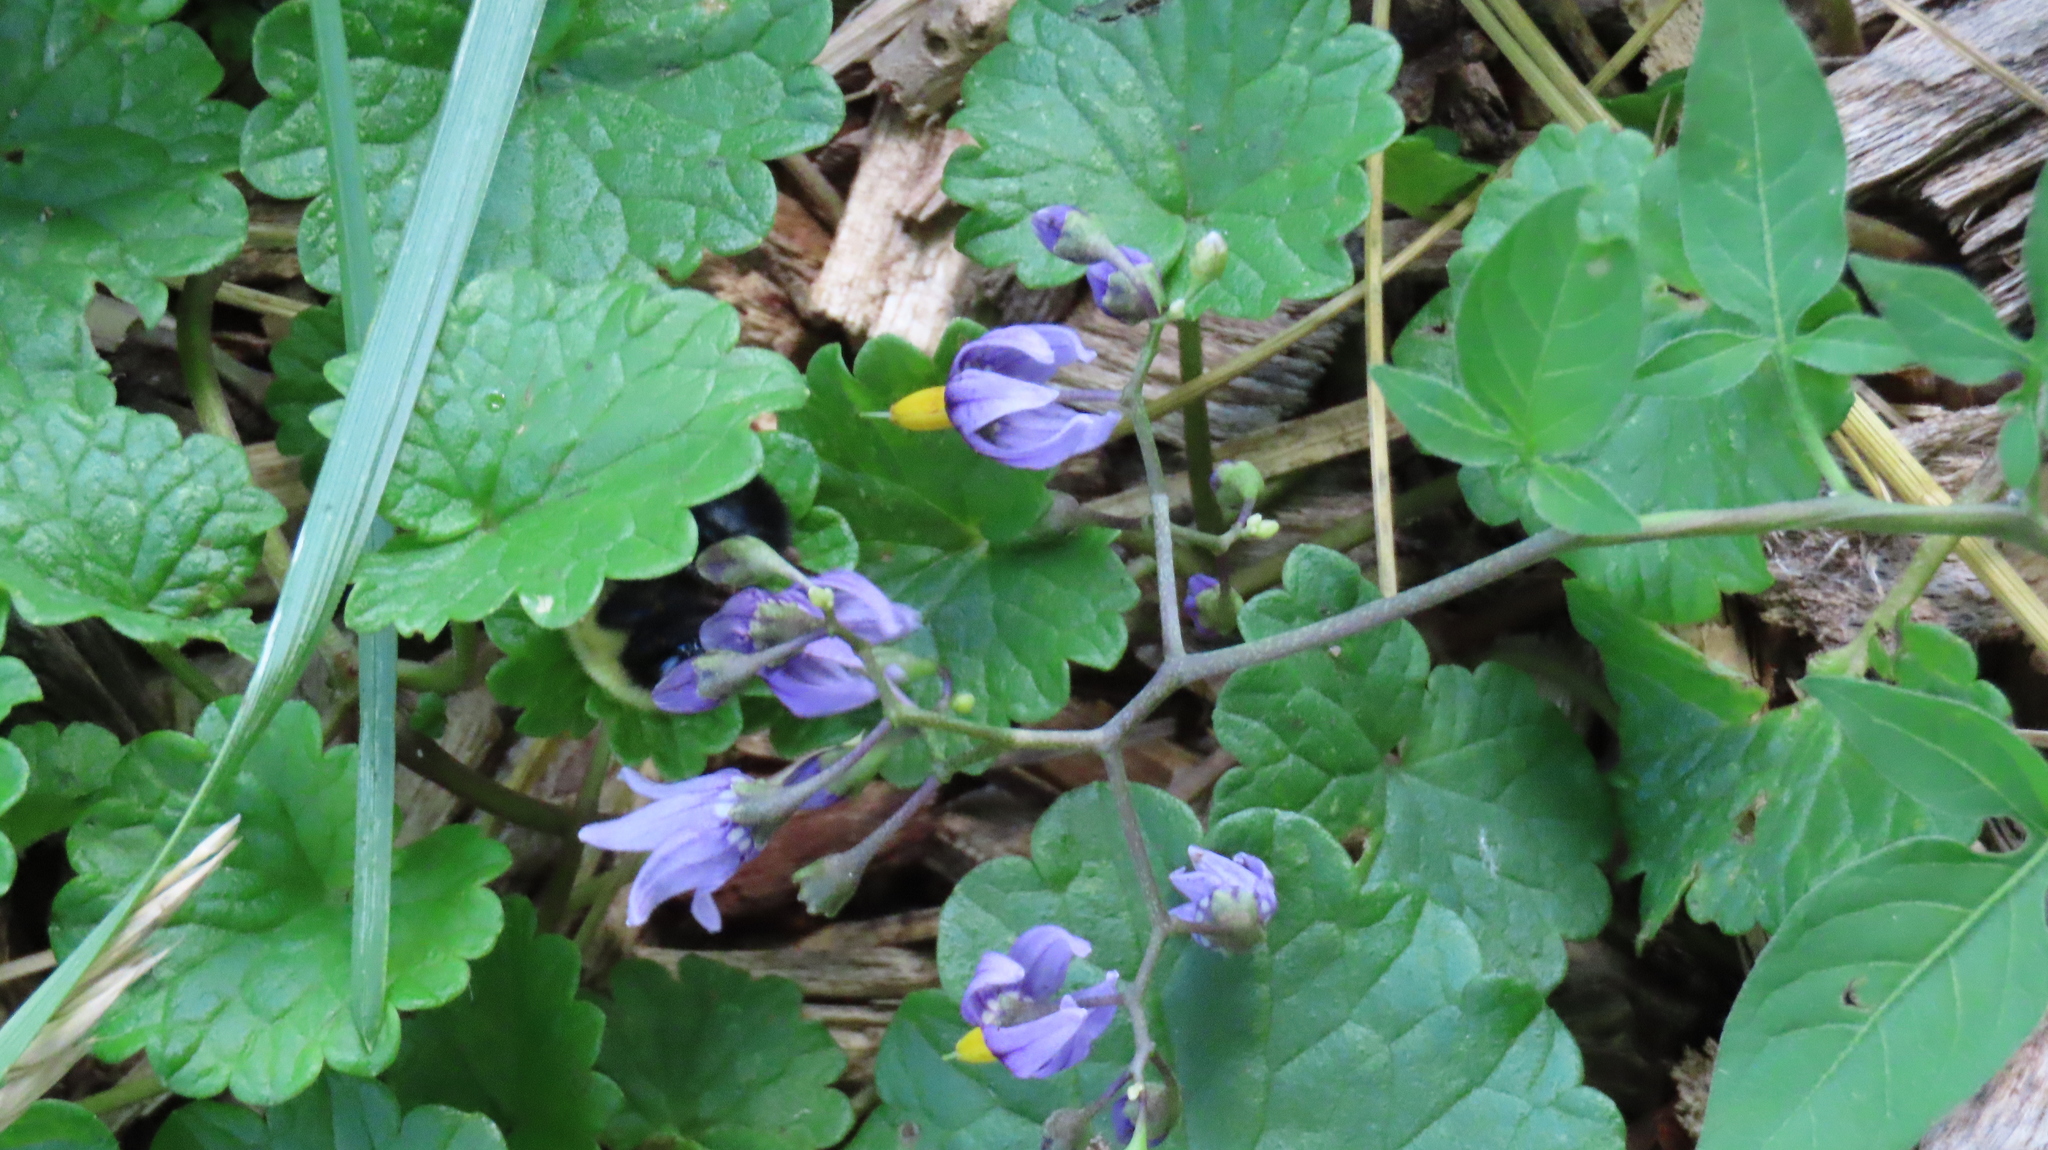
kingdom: Plantae
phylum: Tracheophyta
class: Magnoliopsida
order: Solanales
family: Solanaceae
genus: Solanum
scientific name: Solanum dulcamara
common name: Climbing nightshade
